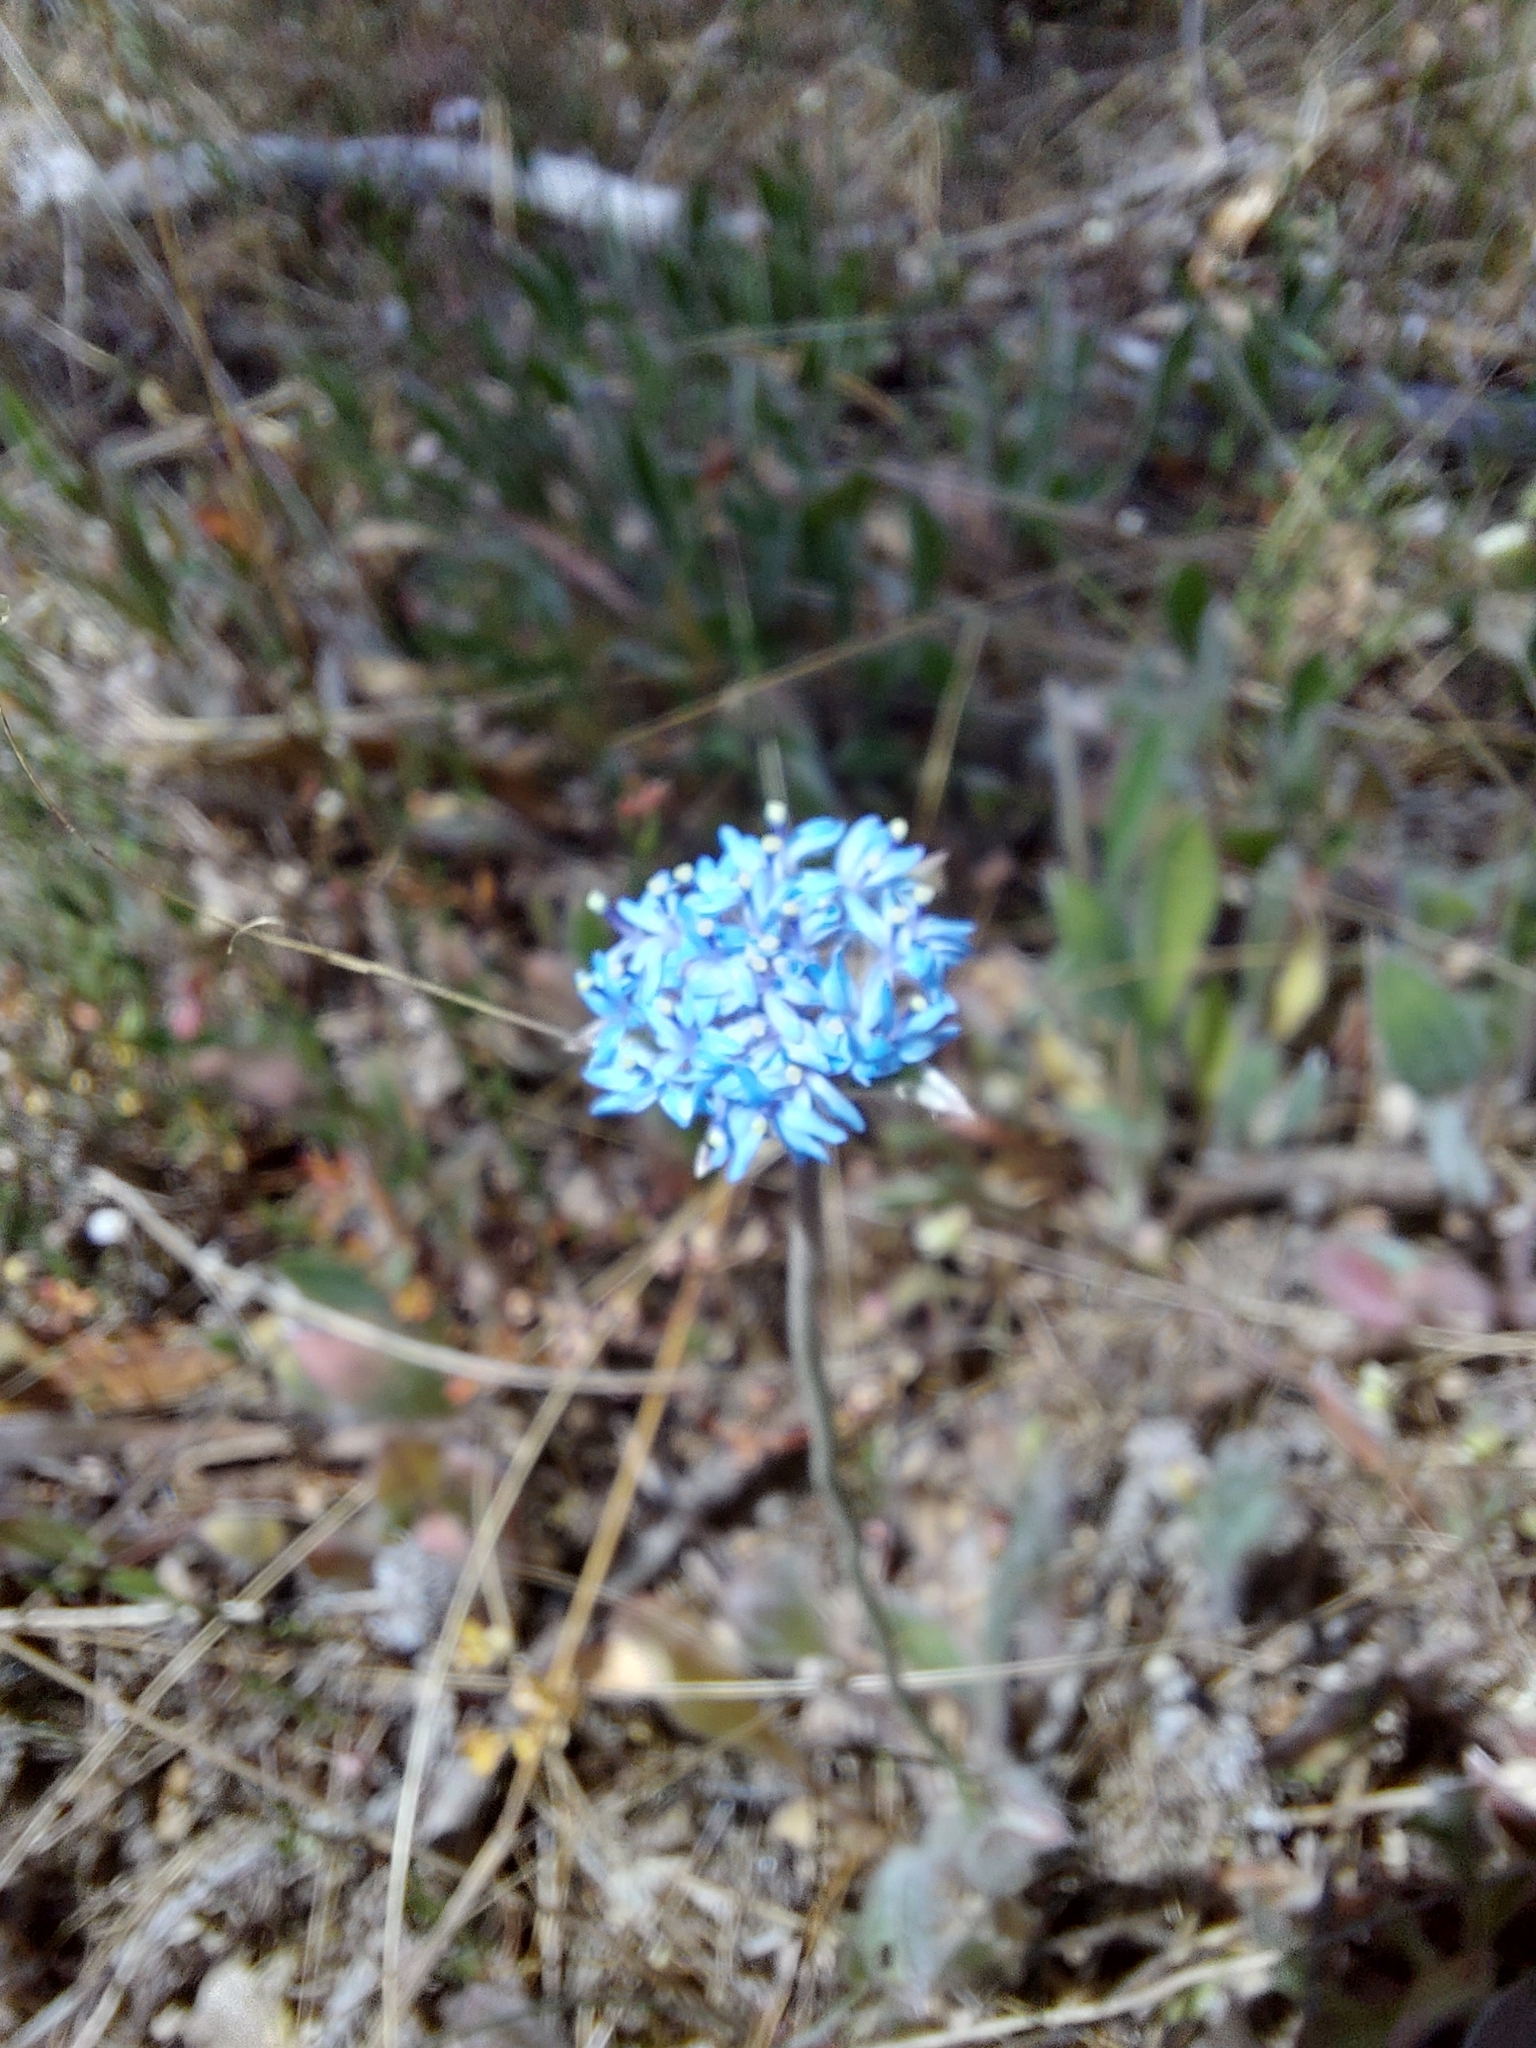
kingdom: Plantae
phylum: Tracheophyta
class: Magnoliopsida
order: Asterales
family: Goodeniaceae
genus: Brunonia
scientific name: Brunonia australis
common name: Blue pincushion
